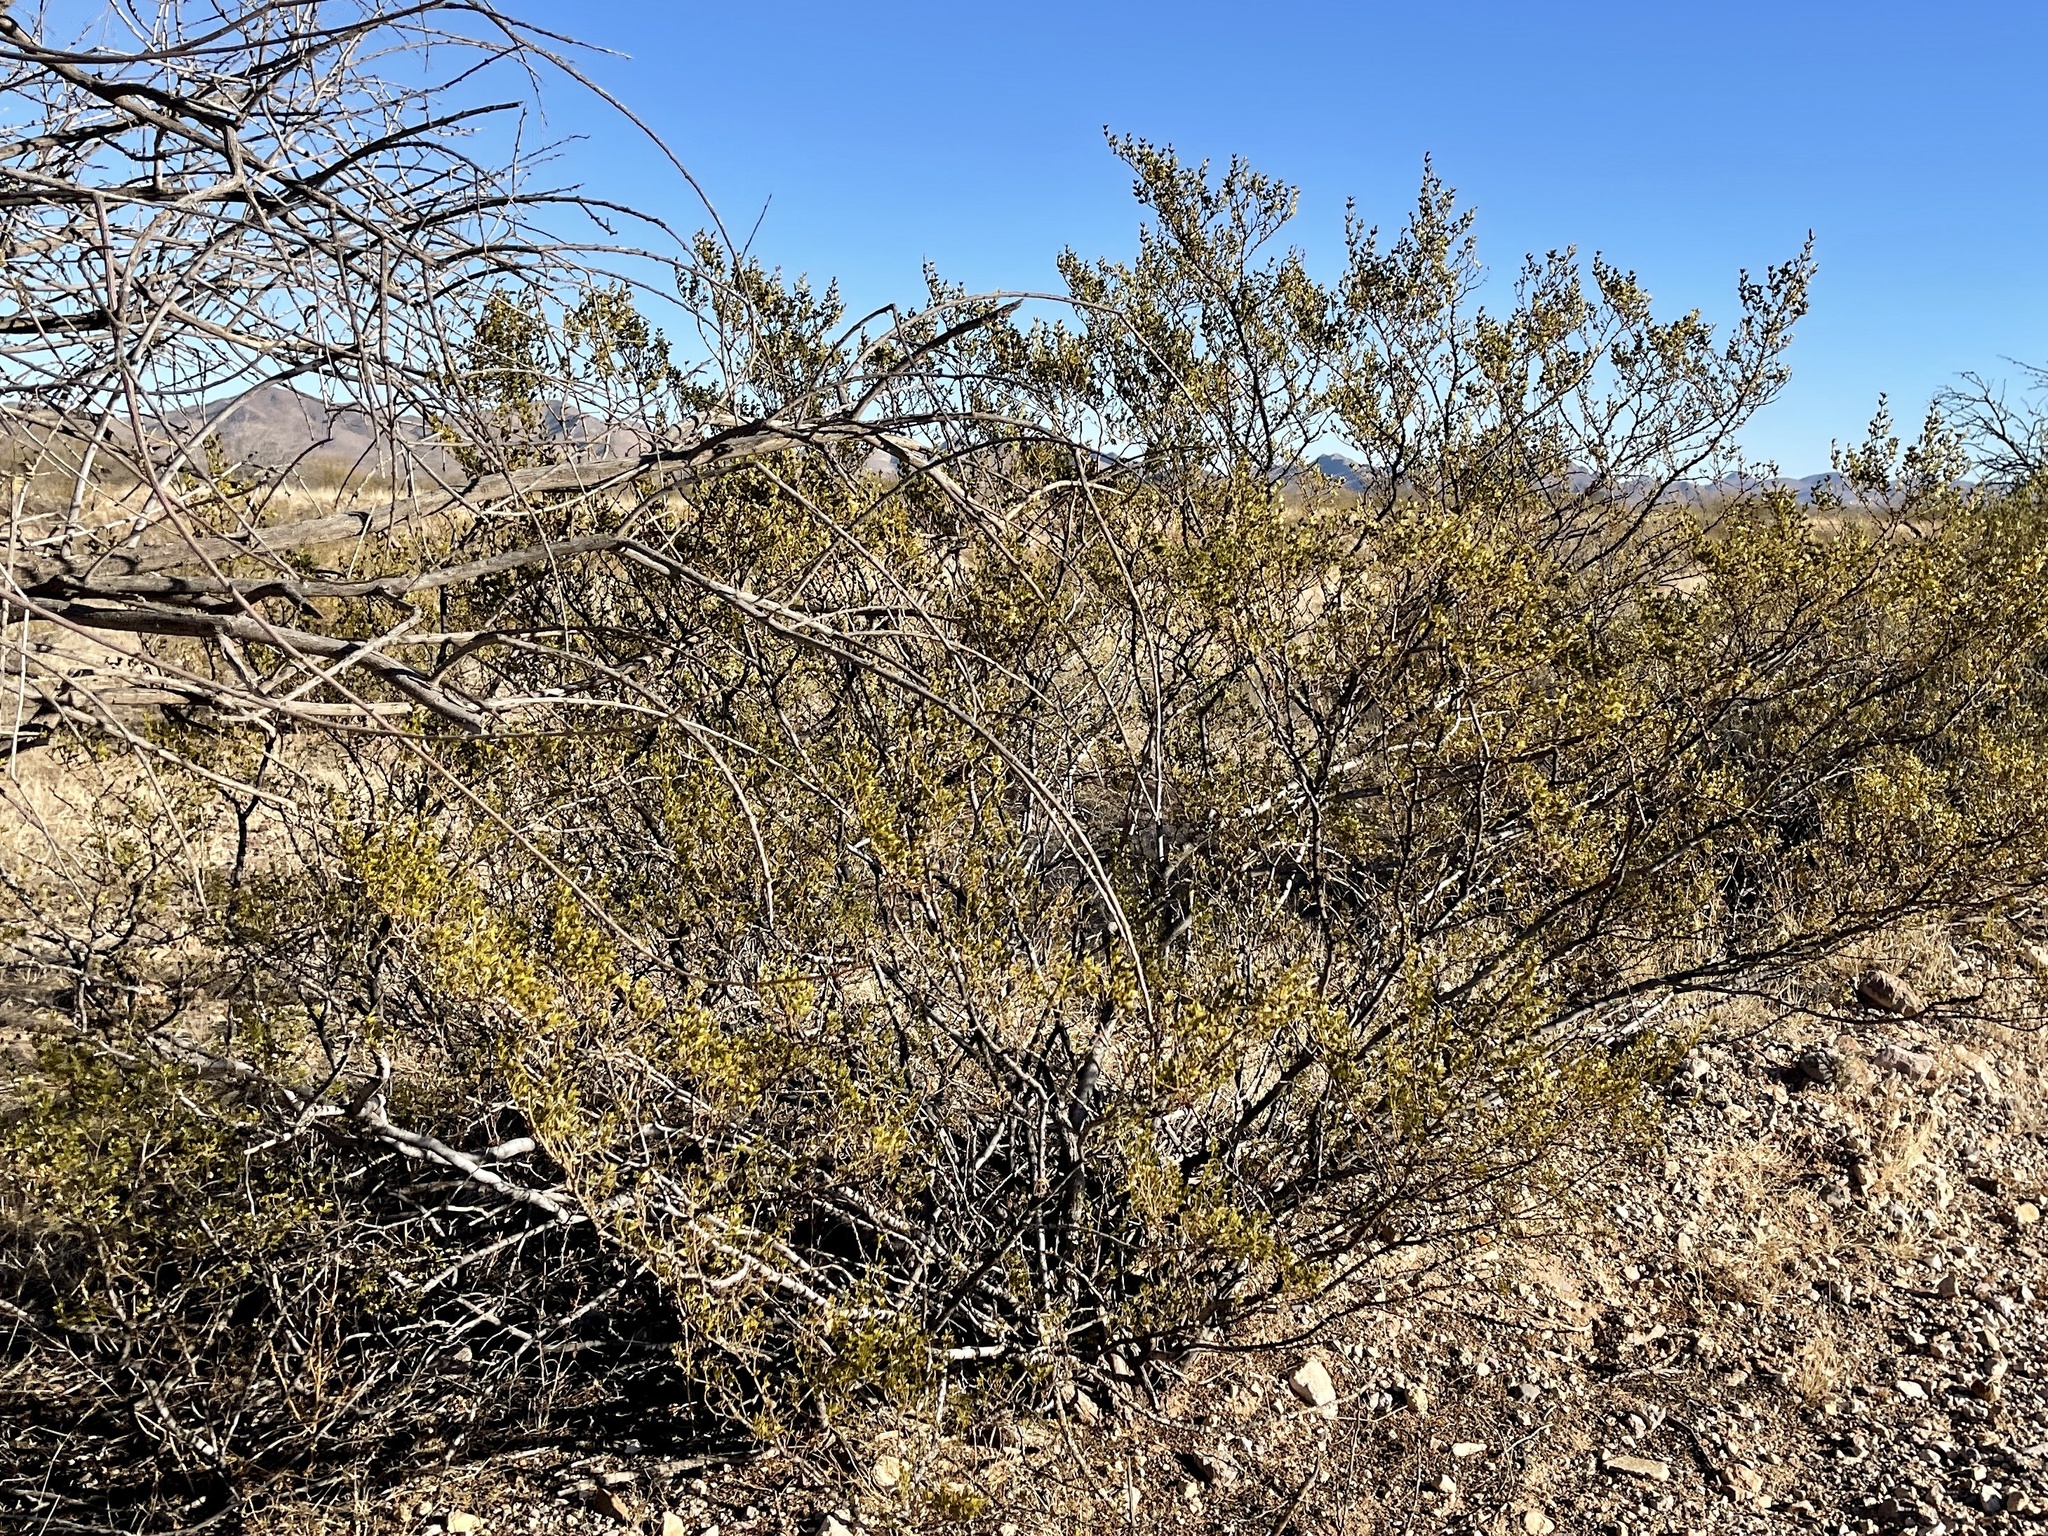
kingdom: Plantae
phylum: Tracheophyta
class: Magnoliopsida
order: Zygophyllales
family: Zygophyllaceae
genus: Larrea
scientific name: Larrea tridentata
